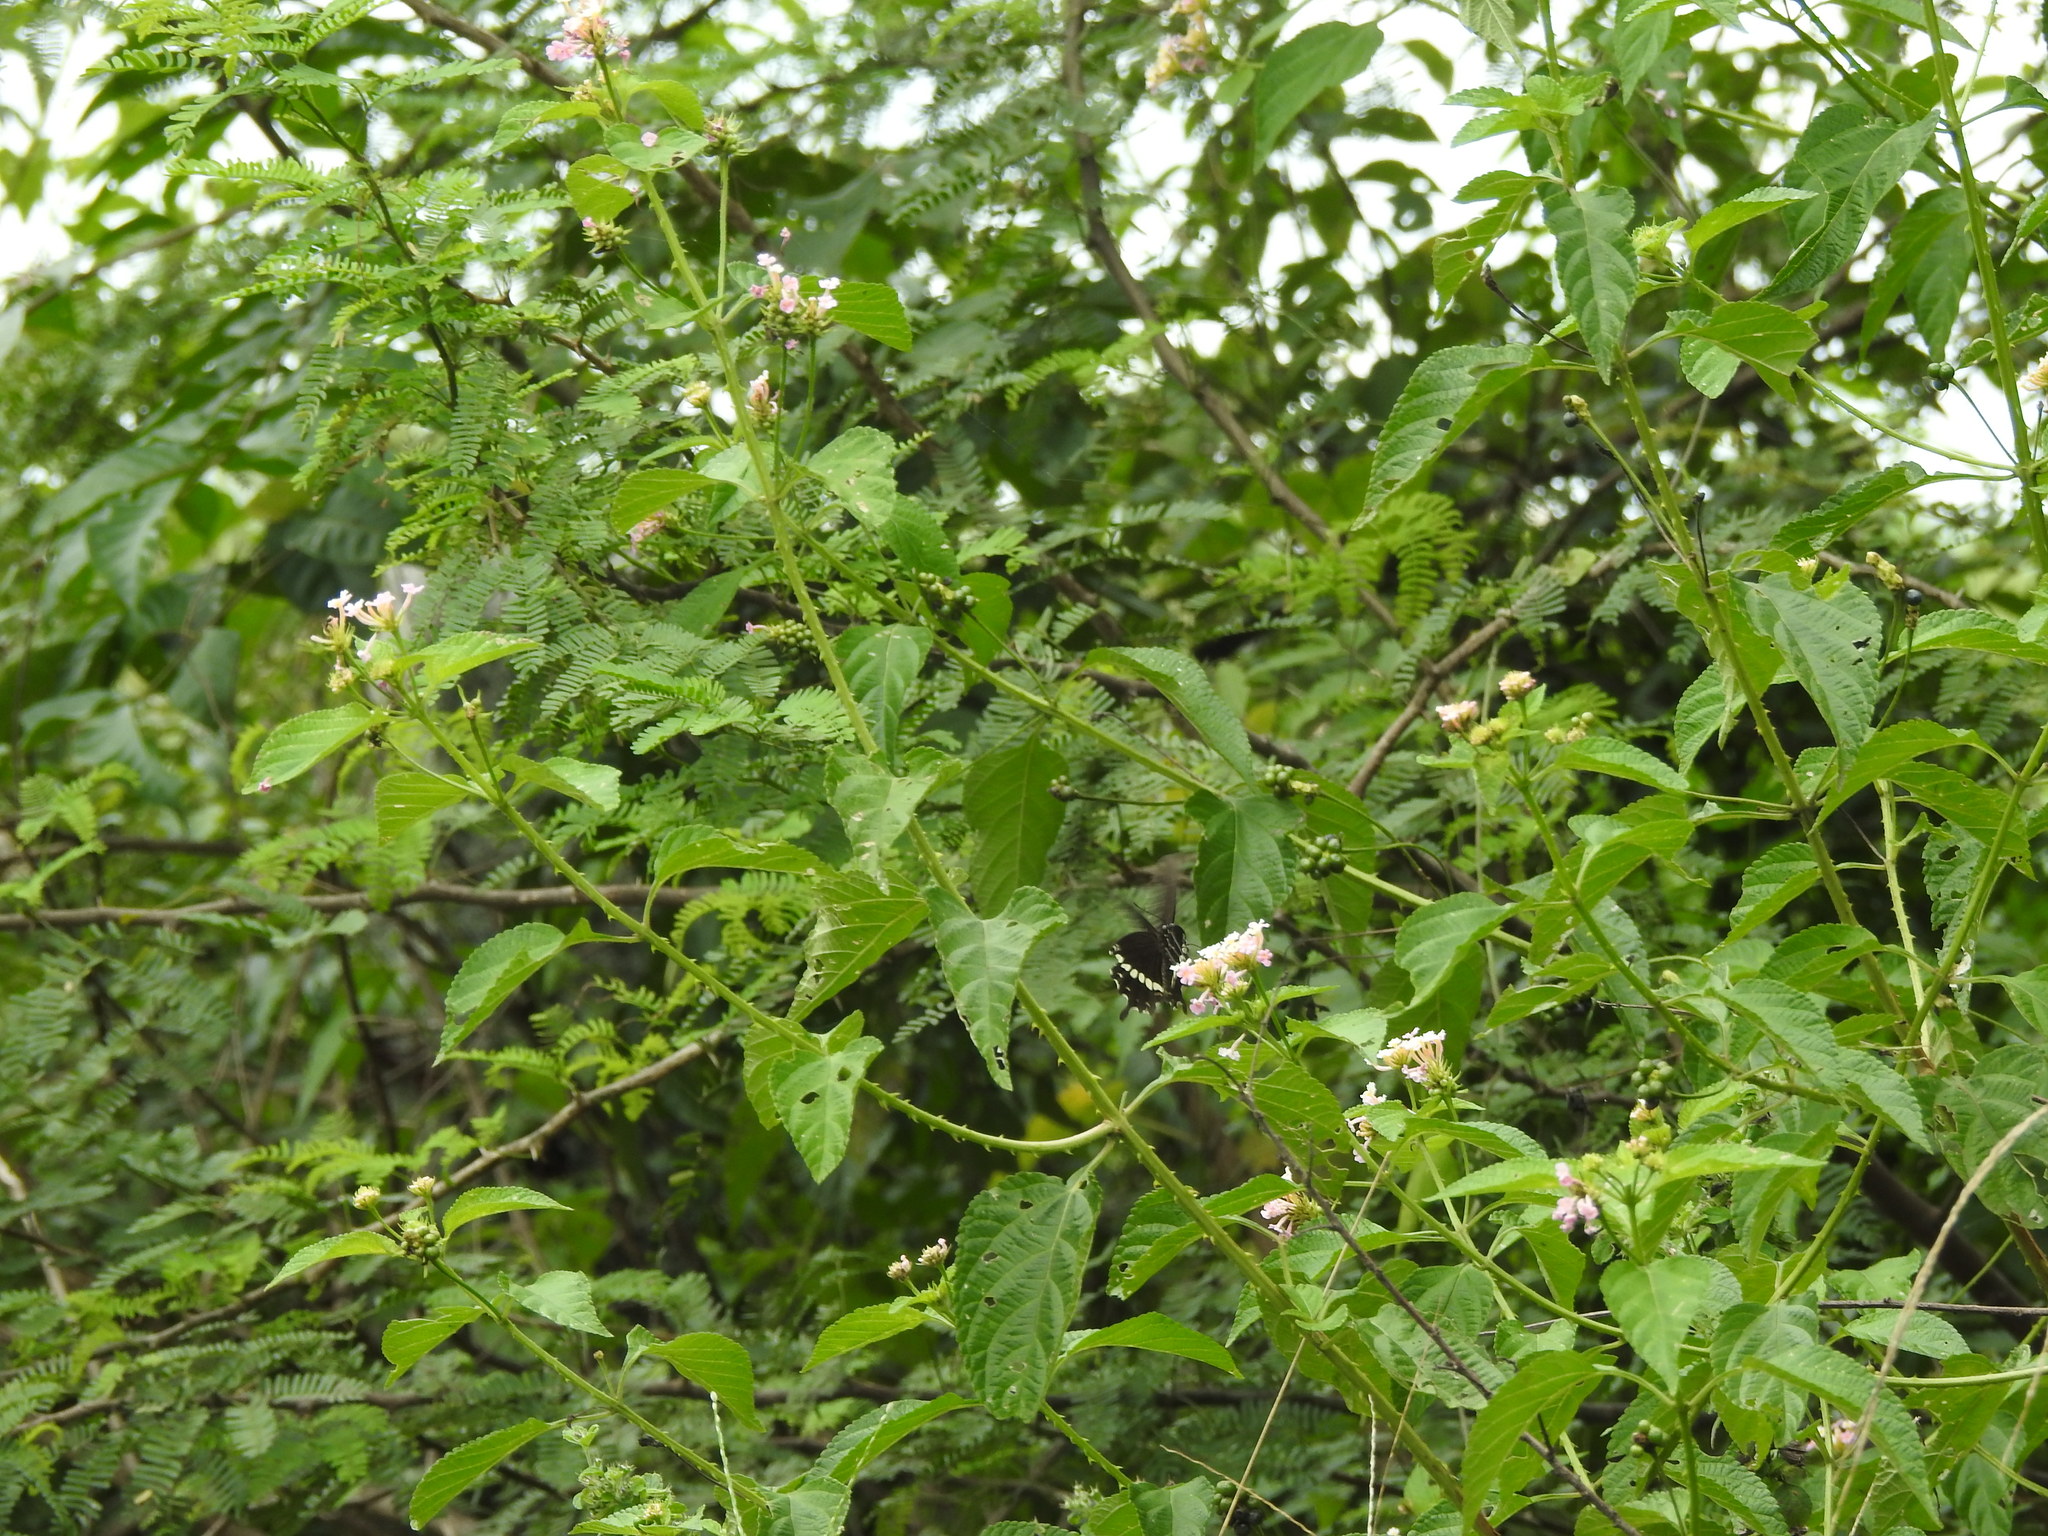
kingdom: Animalia
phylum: Arthropoda
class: Insecta
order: Lepidoptera
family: Papilionidae
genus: Papilio
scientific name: Papilio polytes
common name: Common mormon
